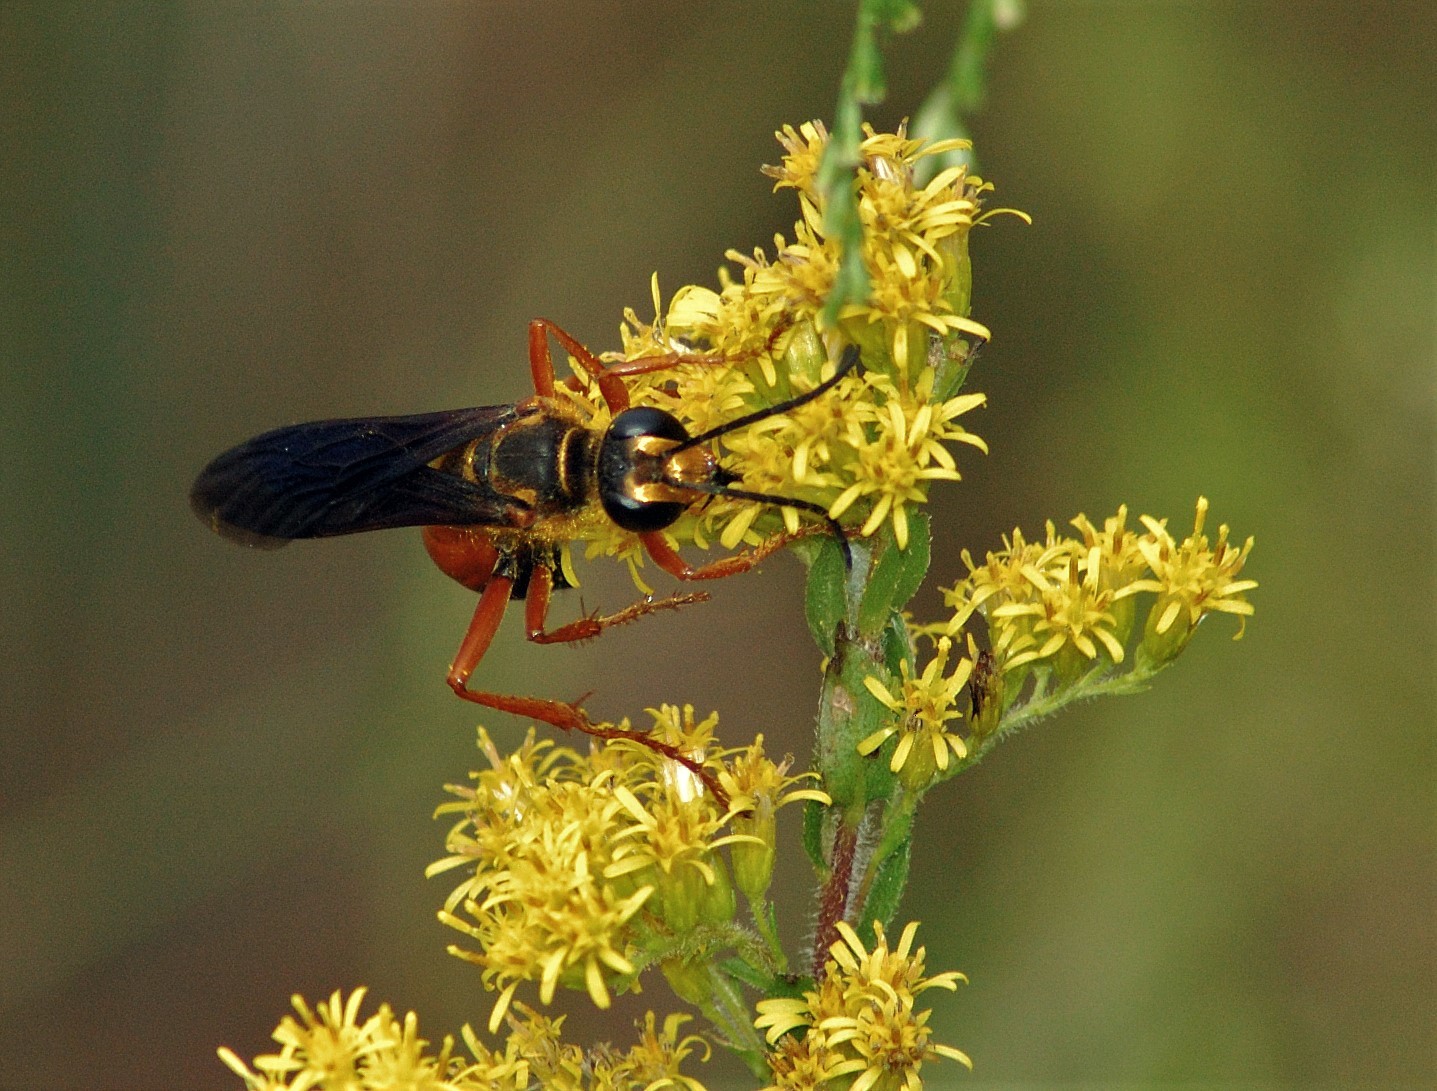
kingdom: Animalia
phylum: Arthropoda
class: Insecta
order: Hymenoptera
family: Sphecidae
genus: Sphex
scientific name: Sphex ichneumoneus
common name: Great golden digger wasp
